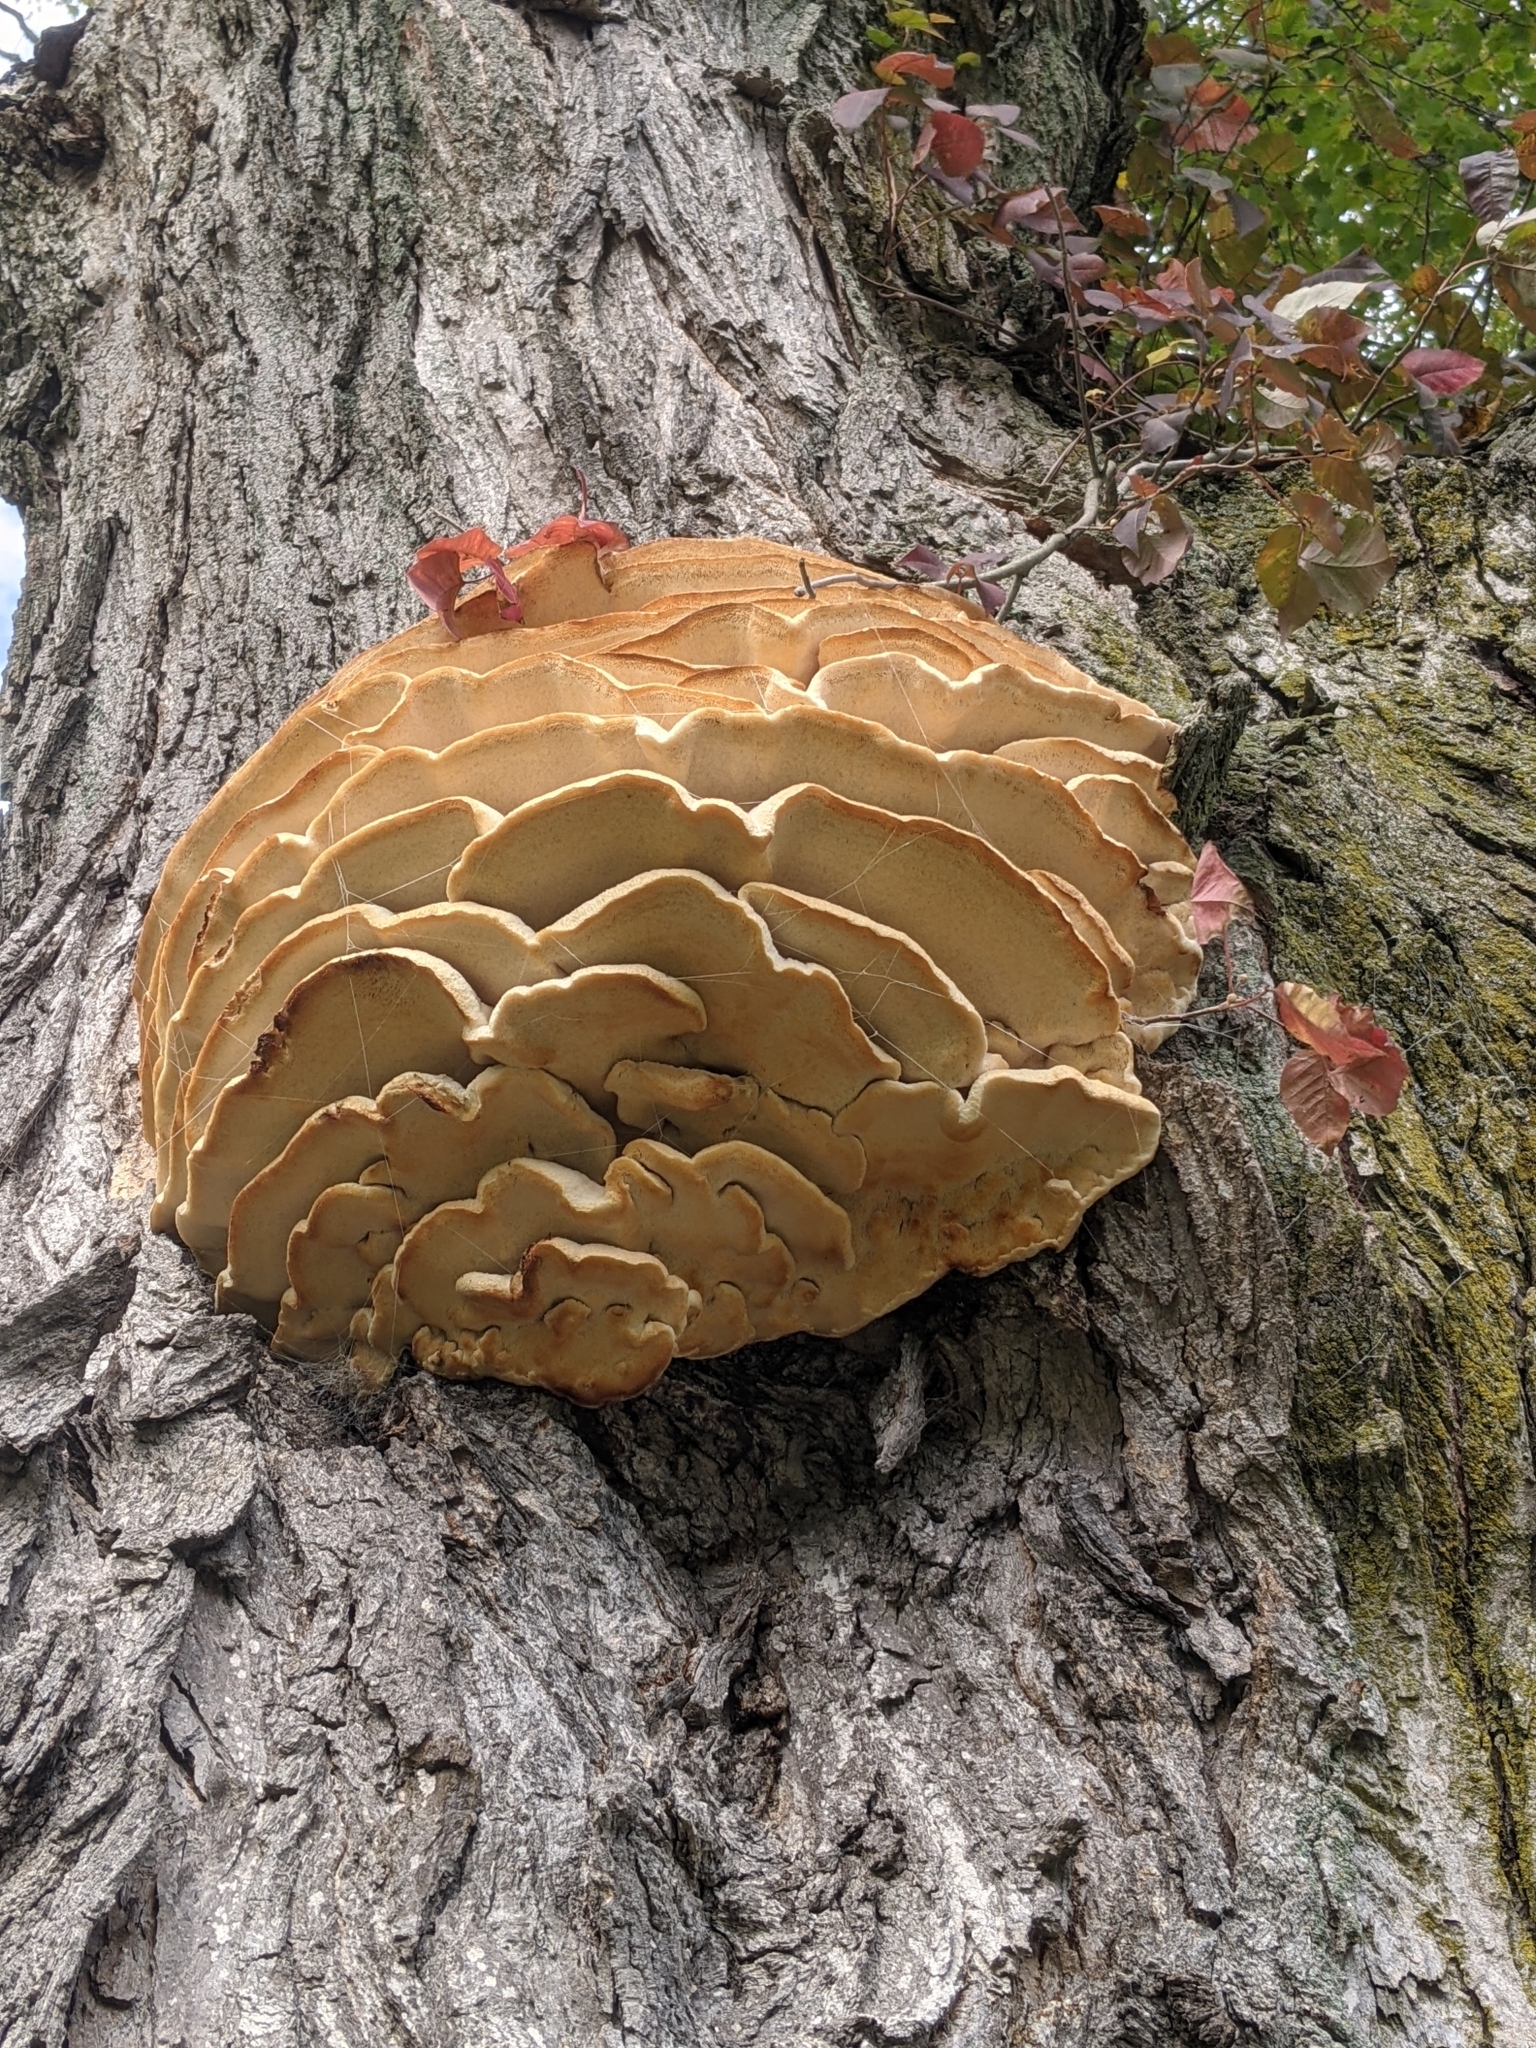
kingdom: Fungi
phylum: Basidiomycota
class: Agaricomycetes
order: Polyporales
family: Meruliaceae
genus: Climacodon
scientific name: Climacodon septentrionalis
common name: Northern tooth
